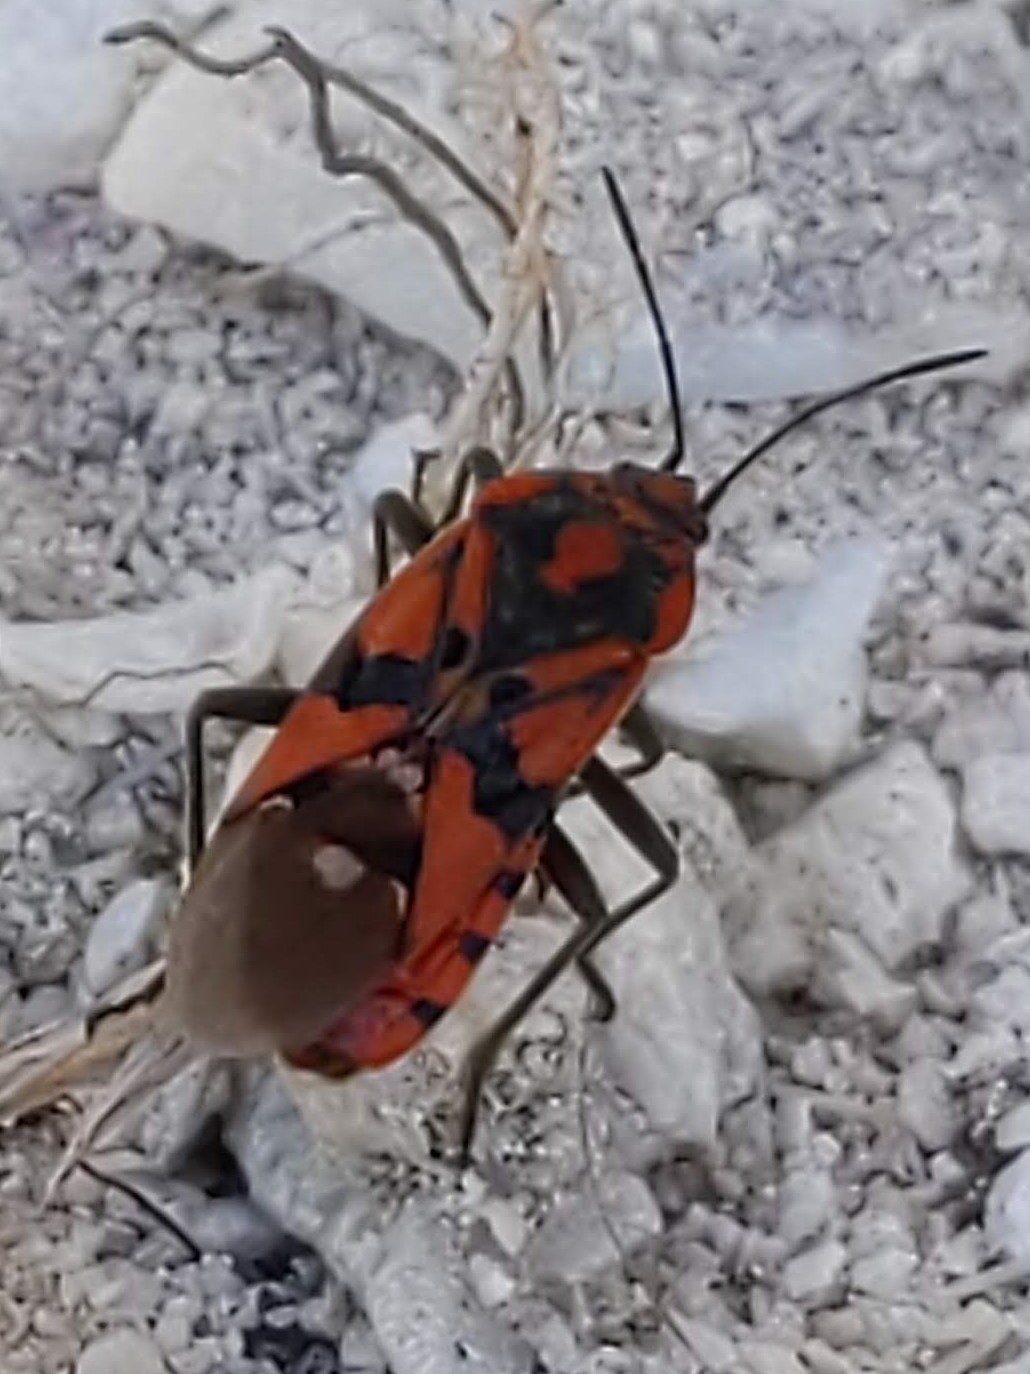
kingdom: Animalia
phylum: Arthropoda
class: Insecta
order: Hemiptera
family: Lygaeidae
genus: Spilostethus
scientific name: Spilostethus pandurus
